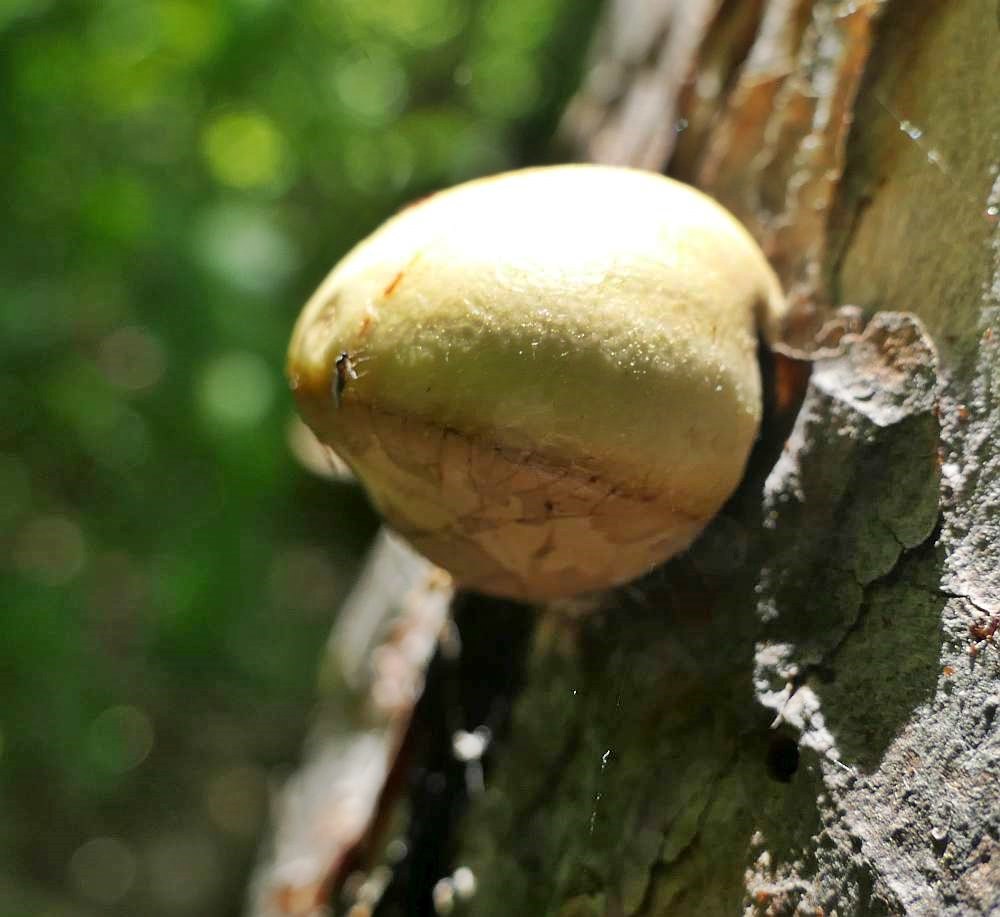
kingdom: Fungi
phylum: Basidiomycota
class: Agaricomycetes
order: Polyporales
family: Polyporaceae
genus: Cryptoporus
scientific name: Cryptoporus volvatus
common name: Veiled polypore
